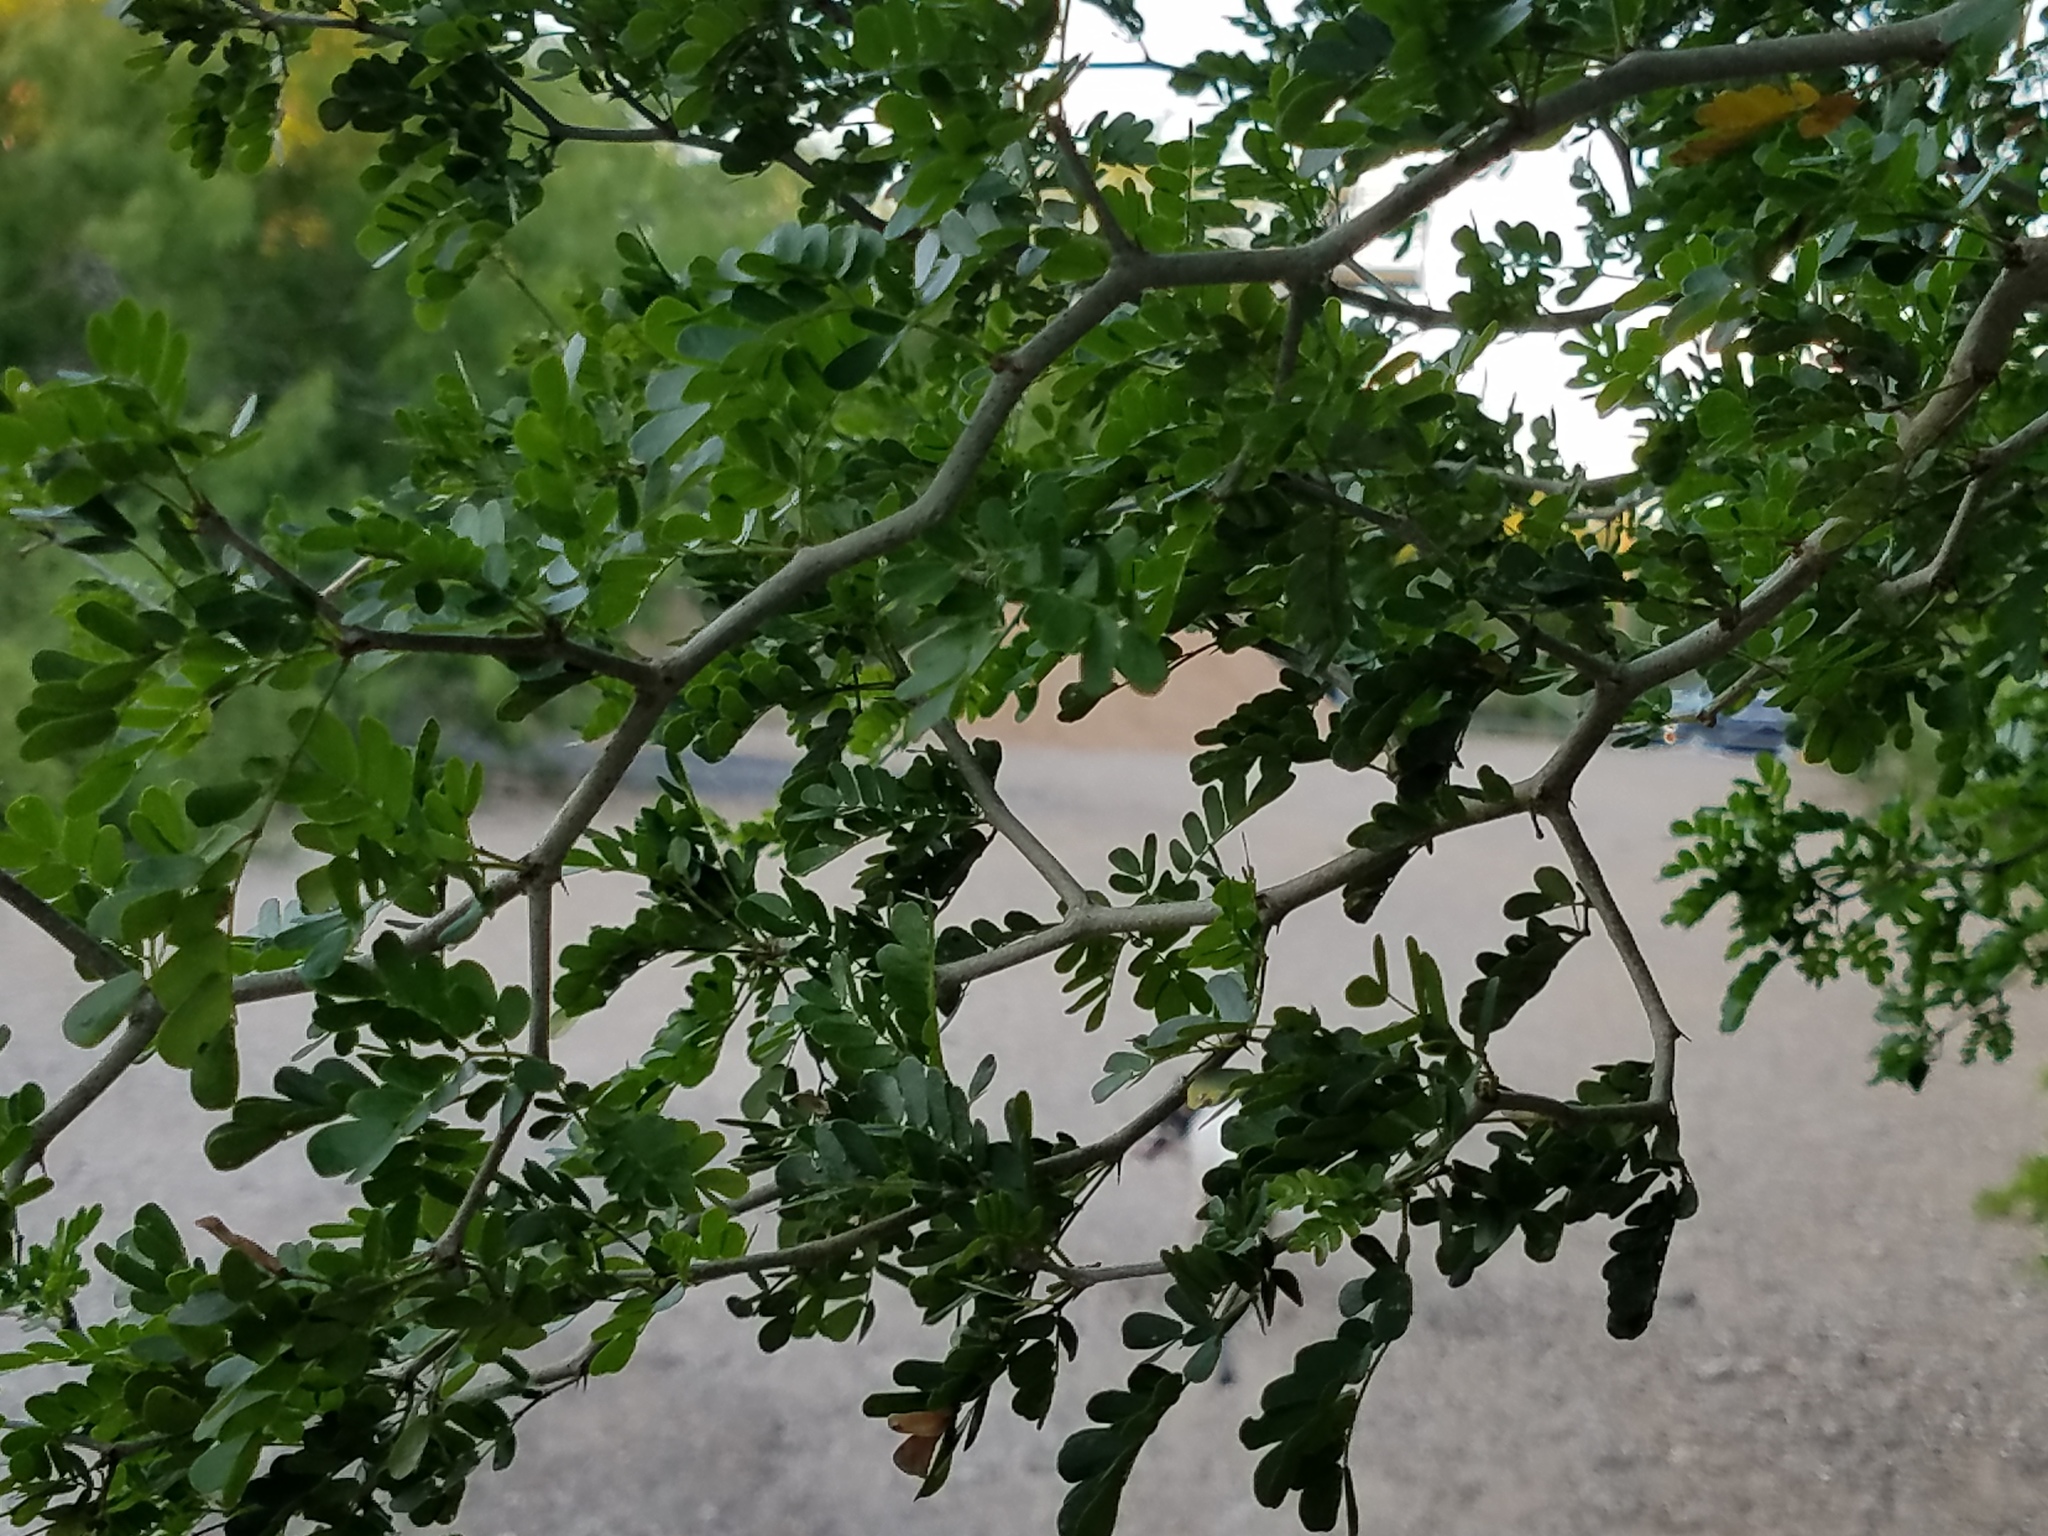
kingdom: Plantae
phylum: Tracheophyta
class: Magnoliopsida
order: Fabales
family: Fabaceae
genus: Ebenopsis
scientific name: Ebenopsis ebano
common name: Ebony blackbead
